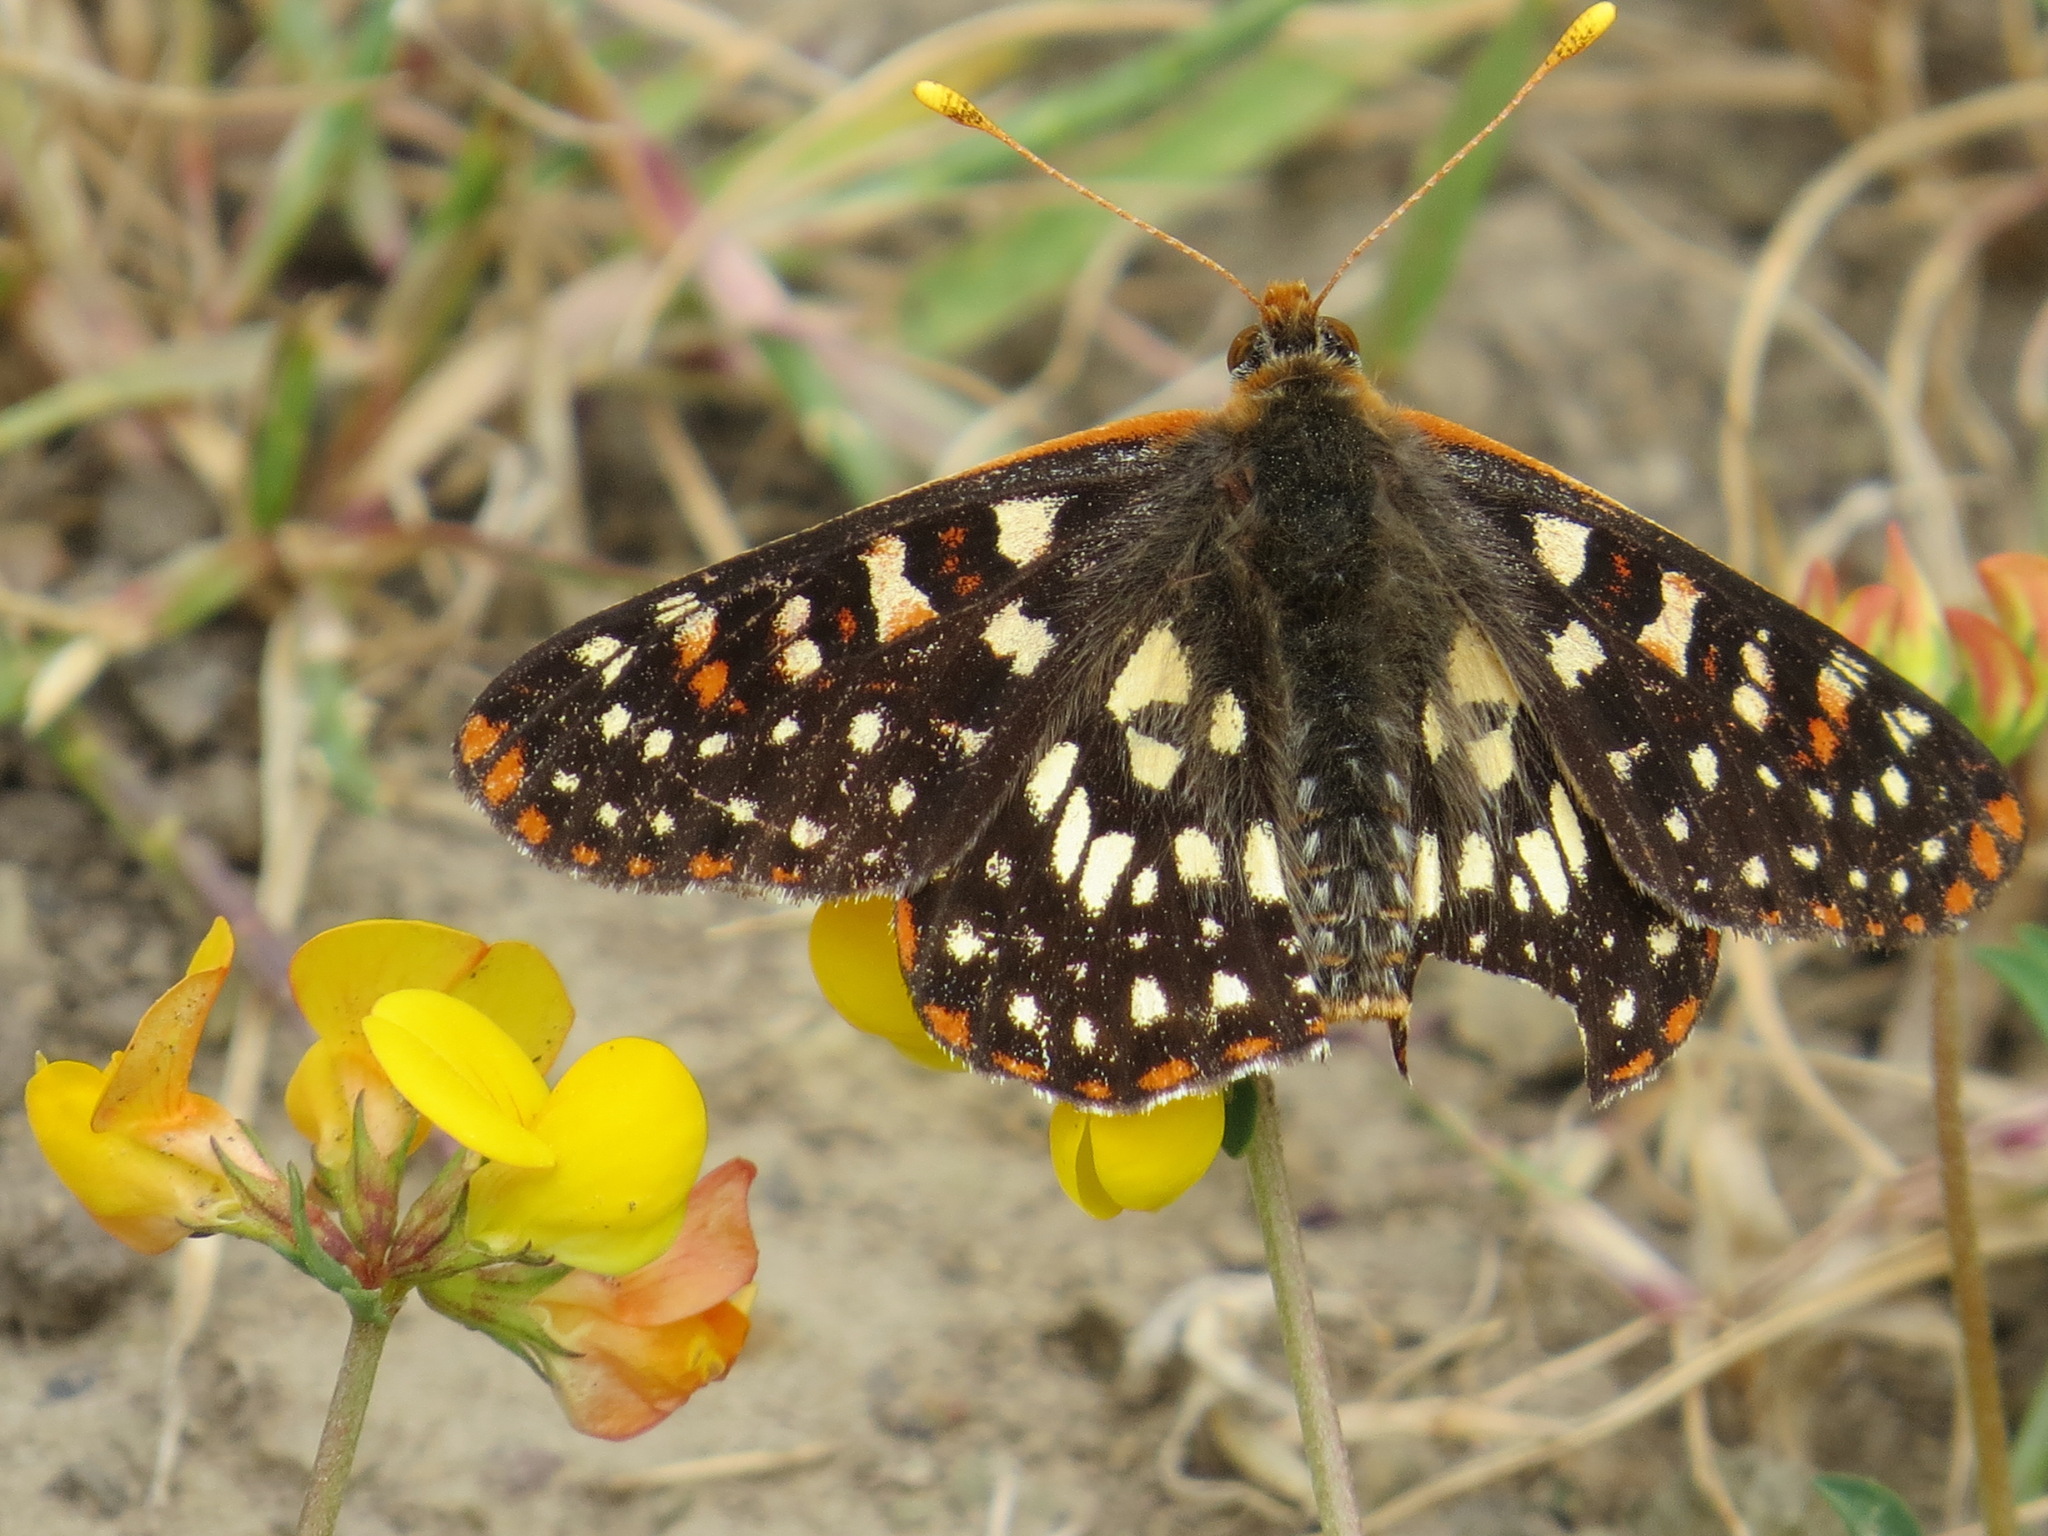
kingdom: Animalia
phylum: Arthropoda
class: Insecta
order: Lepidoptera
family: Nymphalidae
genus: Occidryas
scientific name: Occidryas chalcedona
